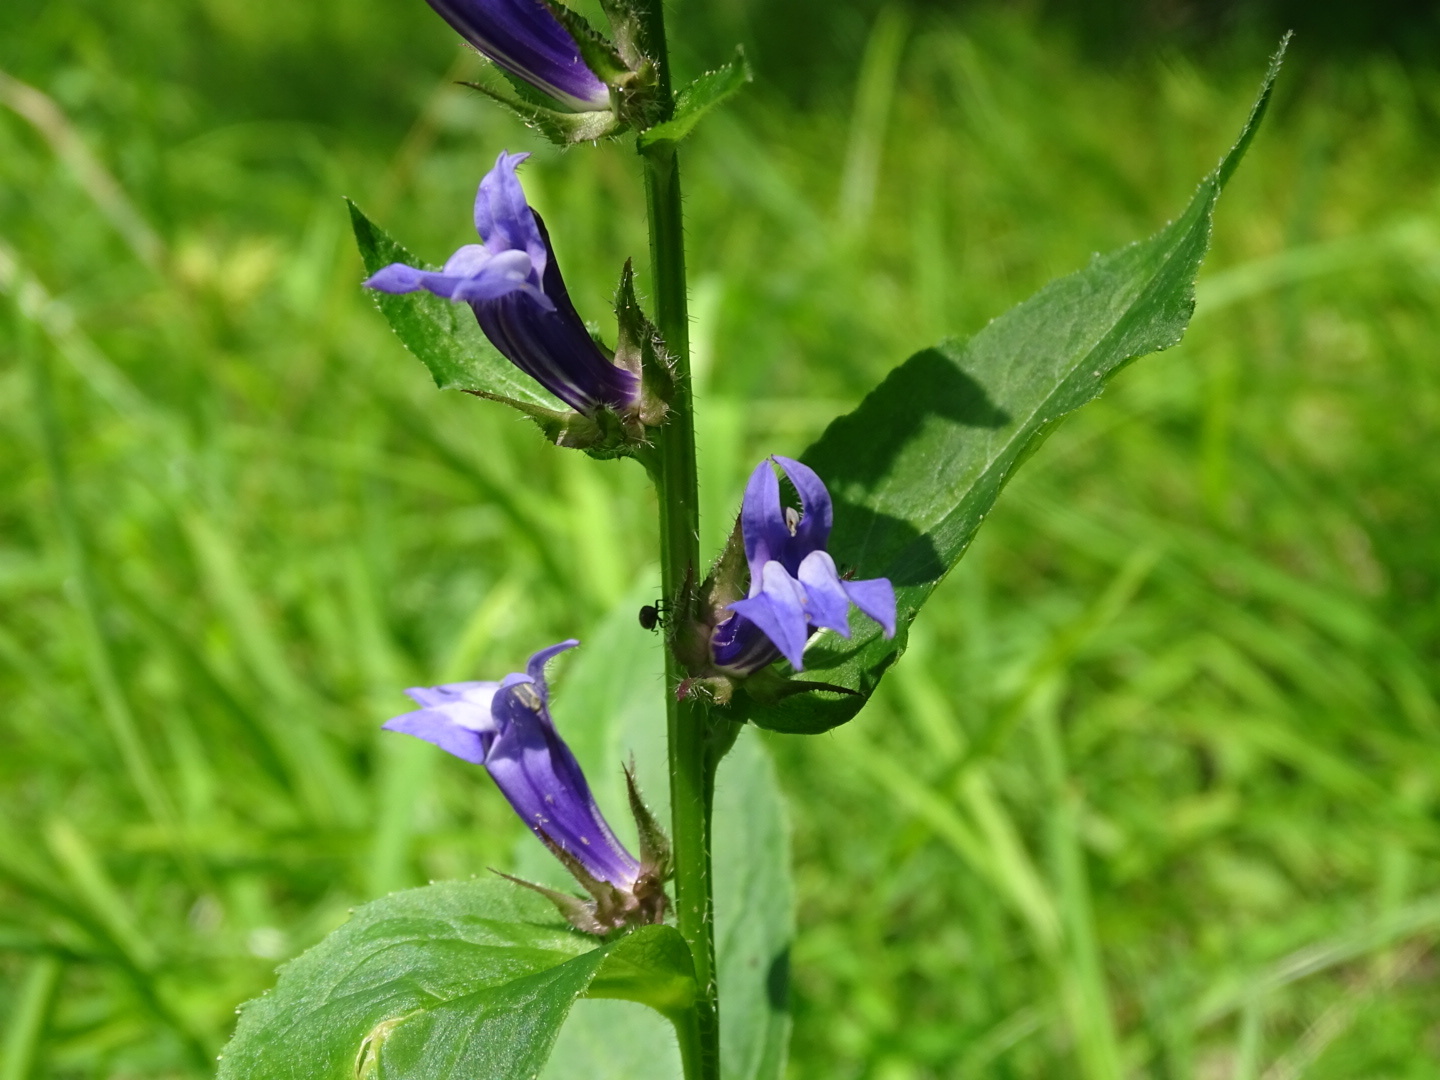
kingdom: Plantae
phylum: Tracheophyta
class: Magnoliopsida
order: Asterales
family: Campanulaceae
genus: Lobelia
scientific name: Lobelia siphilitica
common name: Great lobelia
